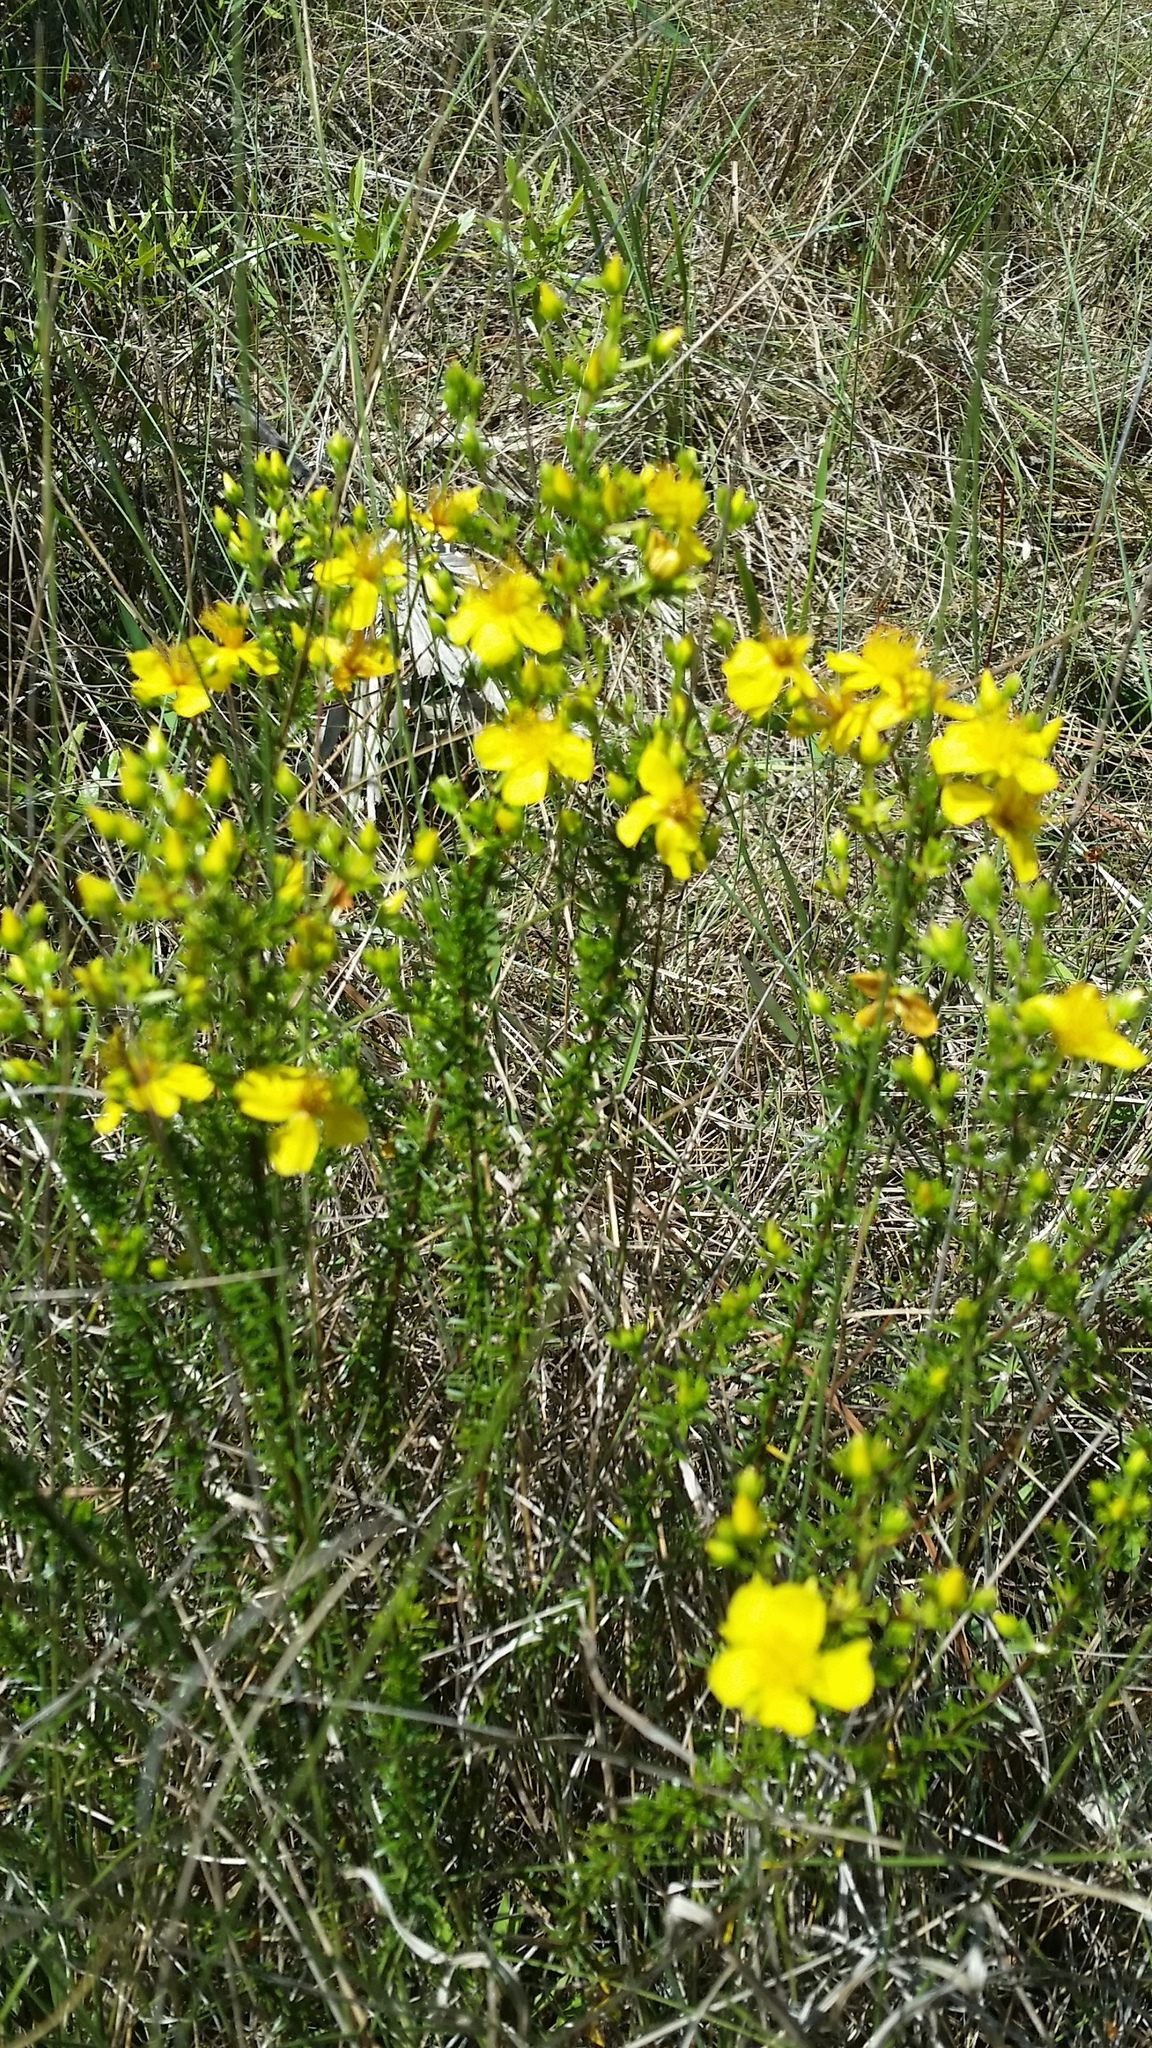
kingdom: Plantae
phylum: Tracheophyta
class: Magnoliopsida
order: Malpighiales
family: Hypericaceae
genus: Hypericum
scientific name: Hypericum tenuifolium
